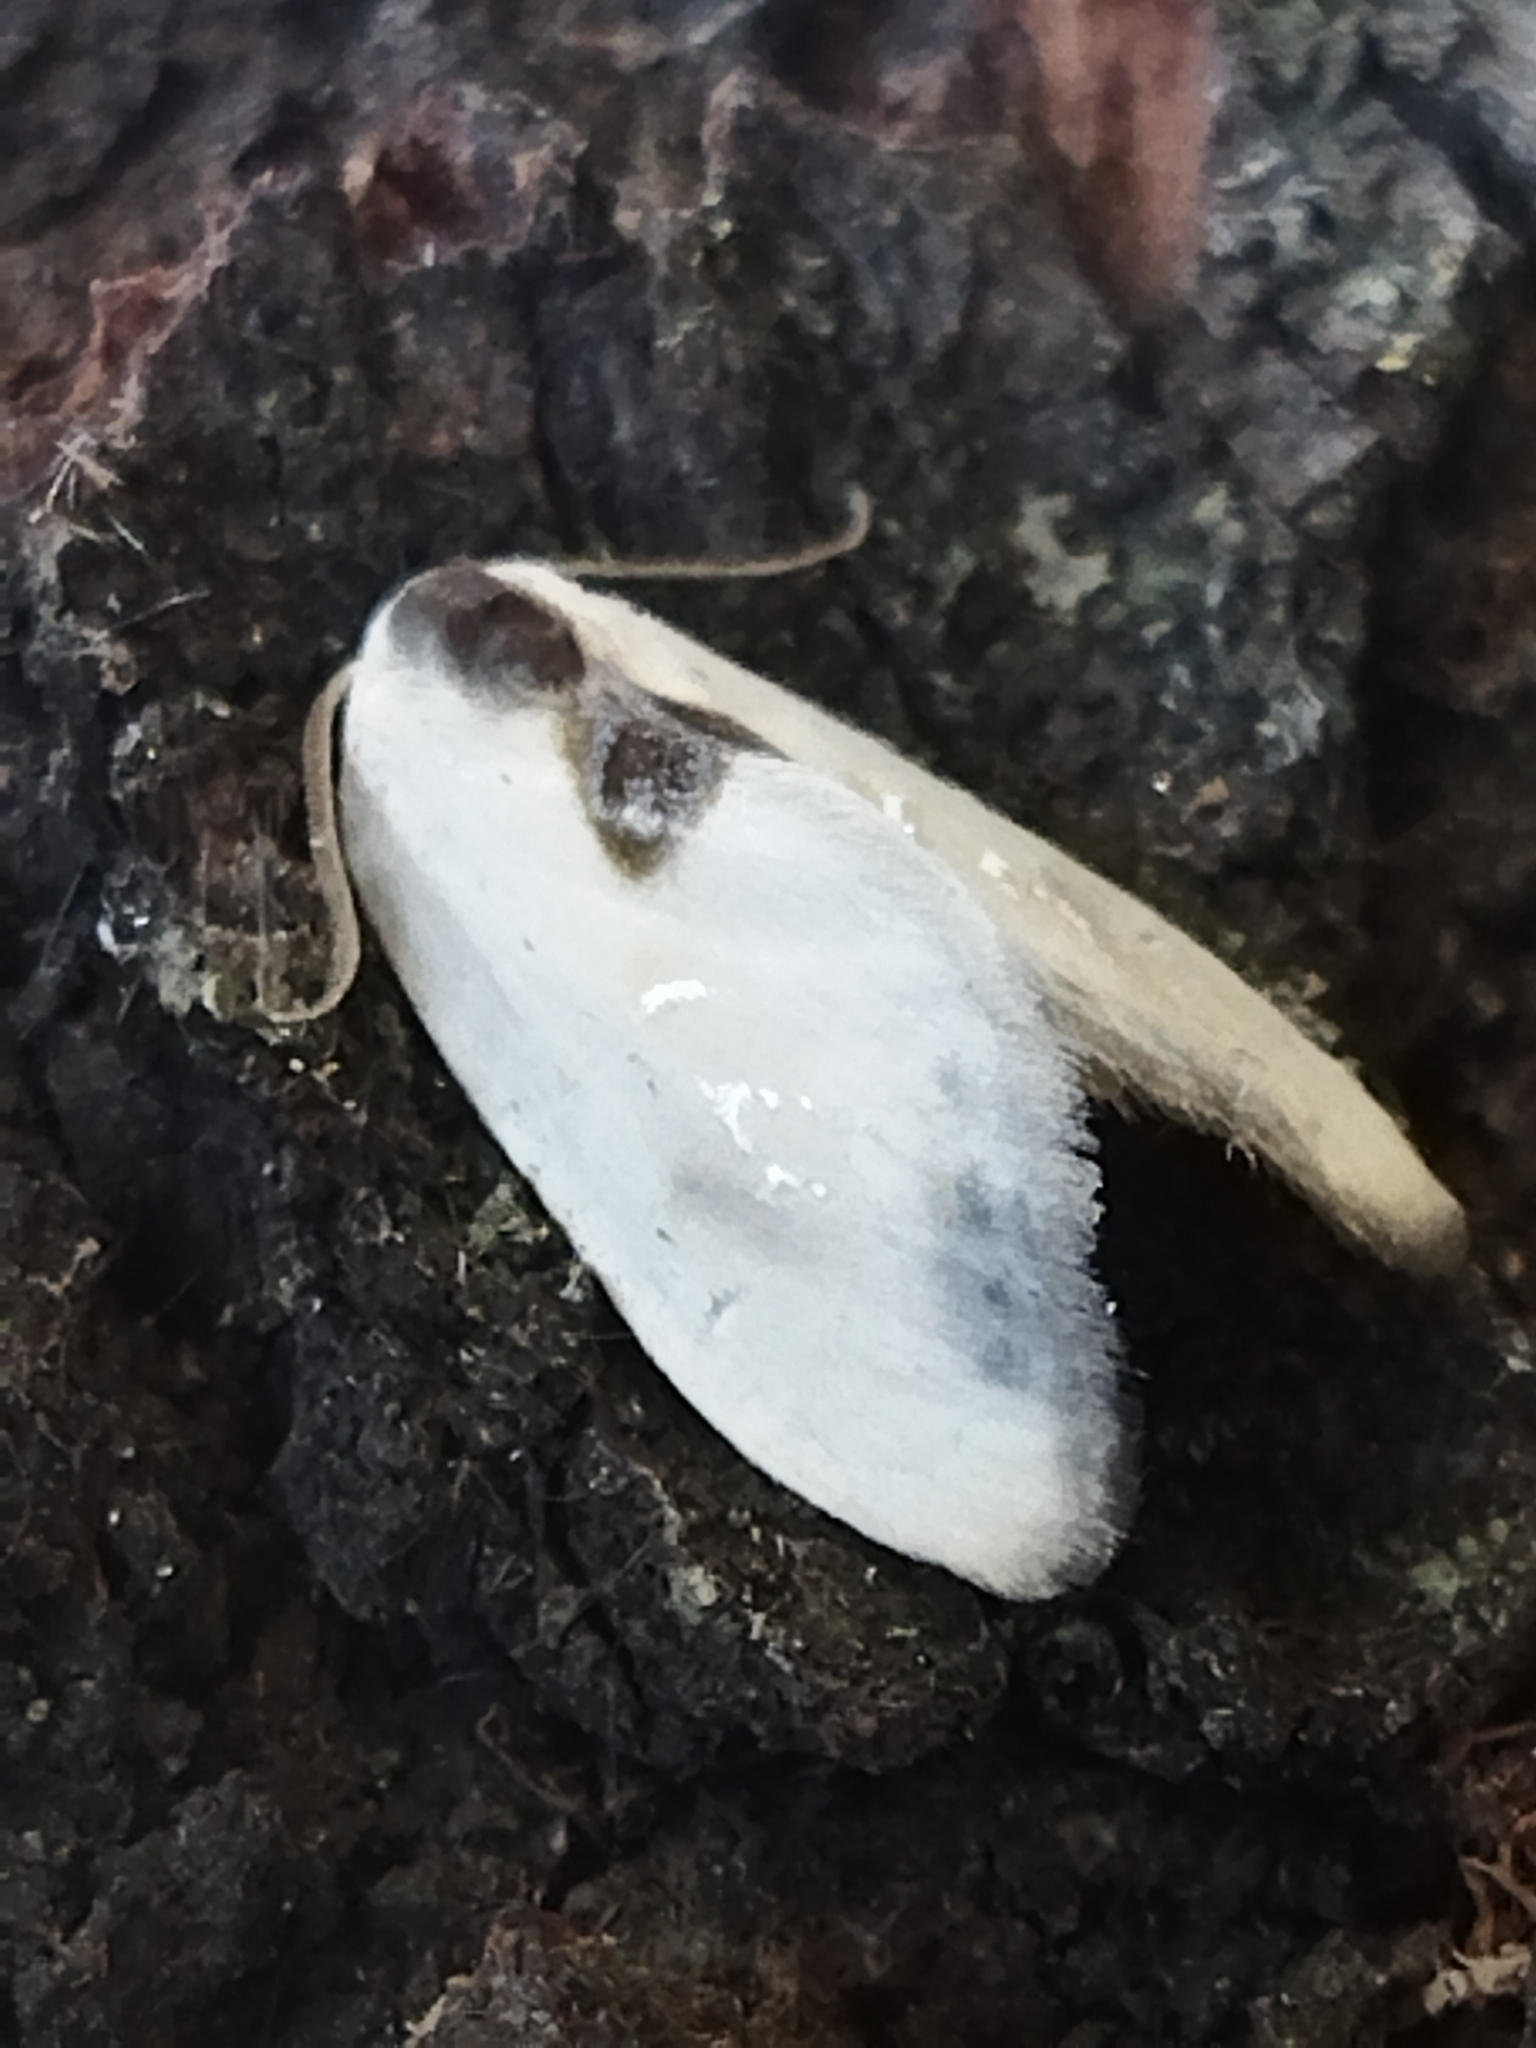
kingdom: Animalia
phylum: Arthropoda
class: Insecta
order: Lepidoptera
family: Drepanidae
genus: Cilix
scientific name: Cilix asiatica
